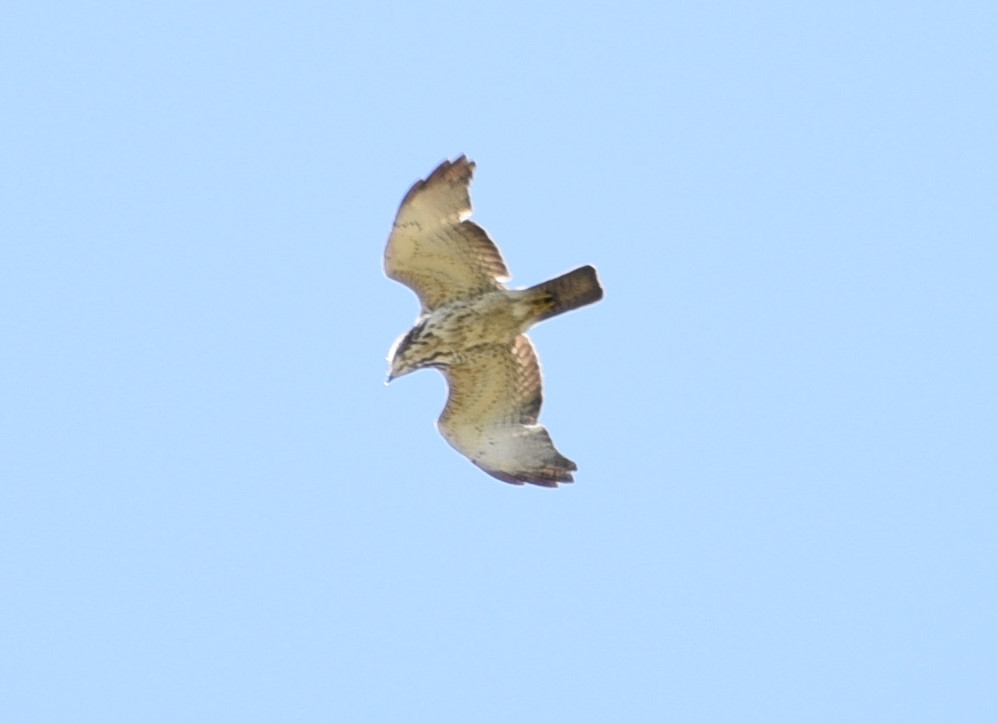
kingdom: Animalia
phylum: Chordata
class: Aves
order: Accipitriformes
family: Accipitridae
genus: Buteo
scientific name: Buteo platypterus
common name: Broad-winged hawk
